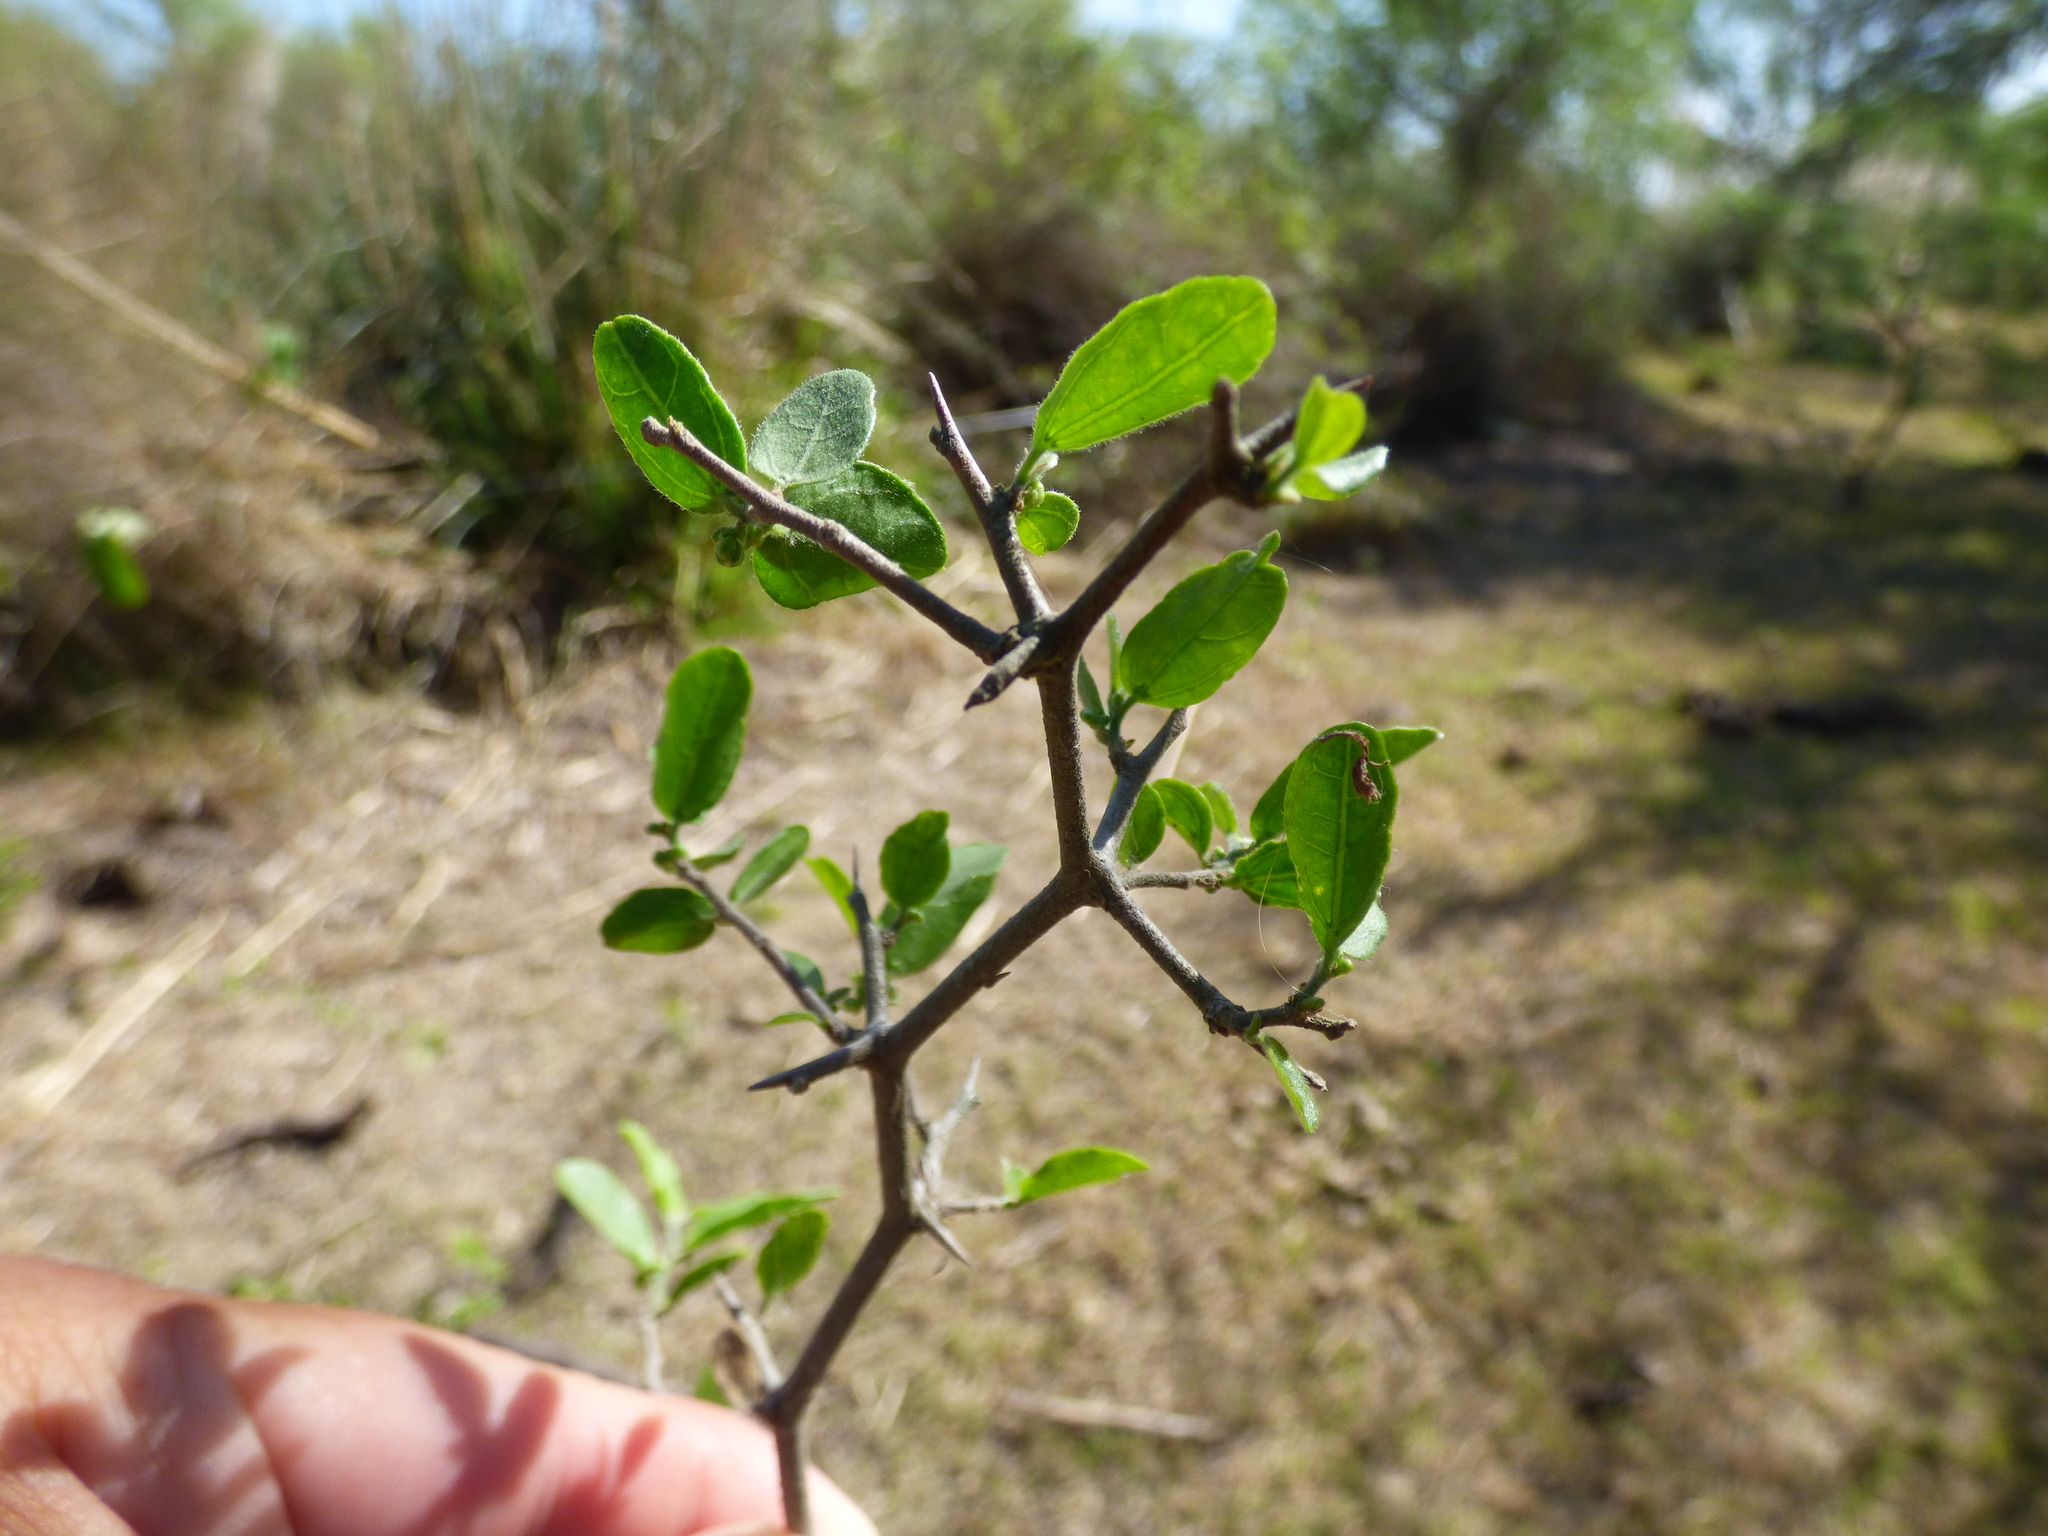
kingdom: Plantae
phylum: Tracheophyta
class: Magnoliopsida
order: Rosales
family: Cannabaceae
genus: Celtis
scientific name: Celtis pallida
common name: Desert hackberry
